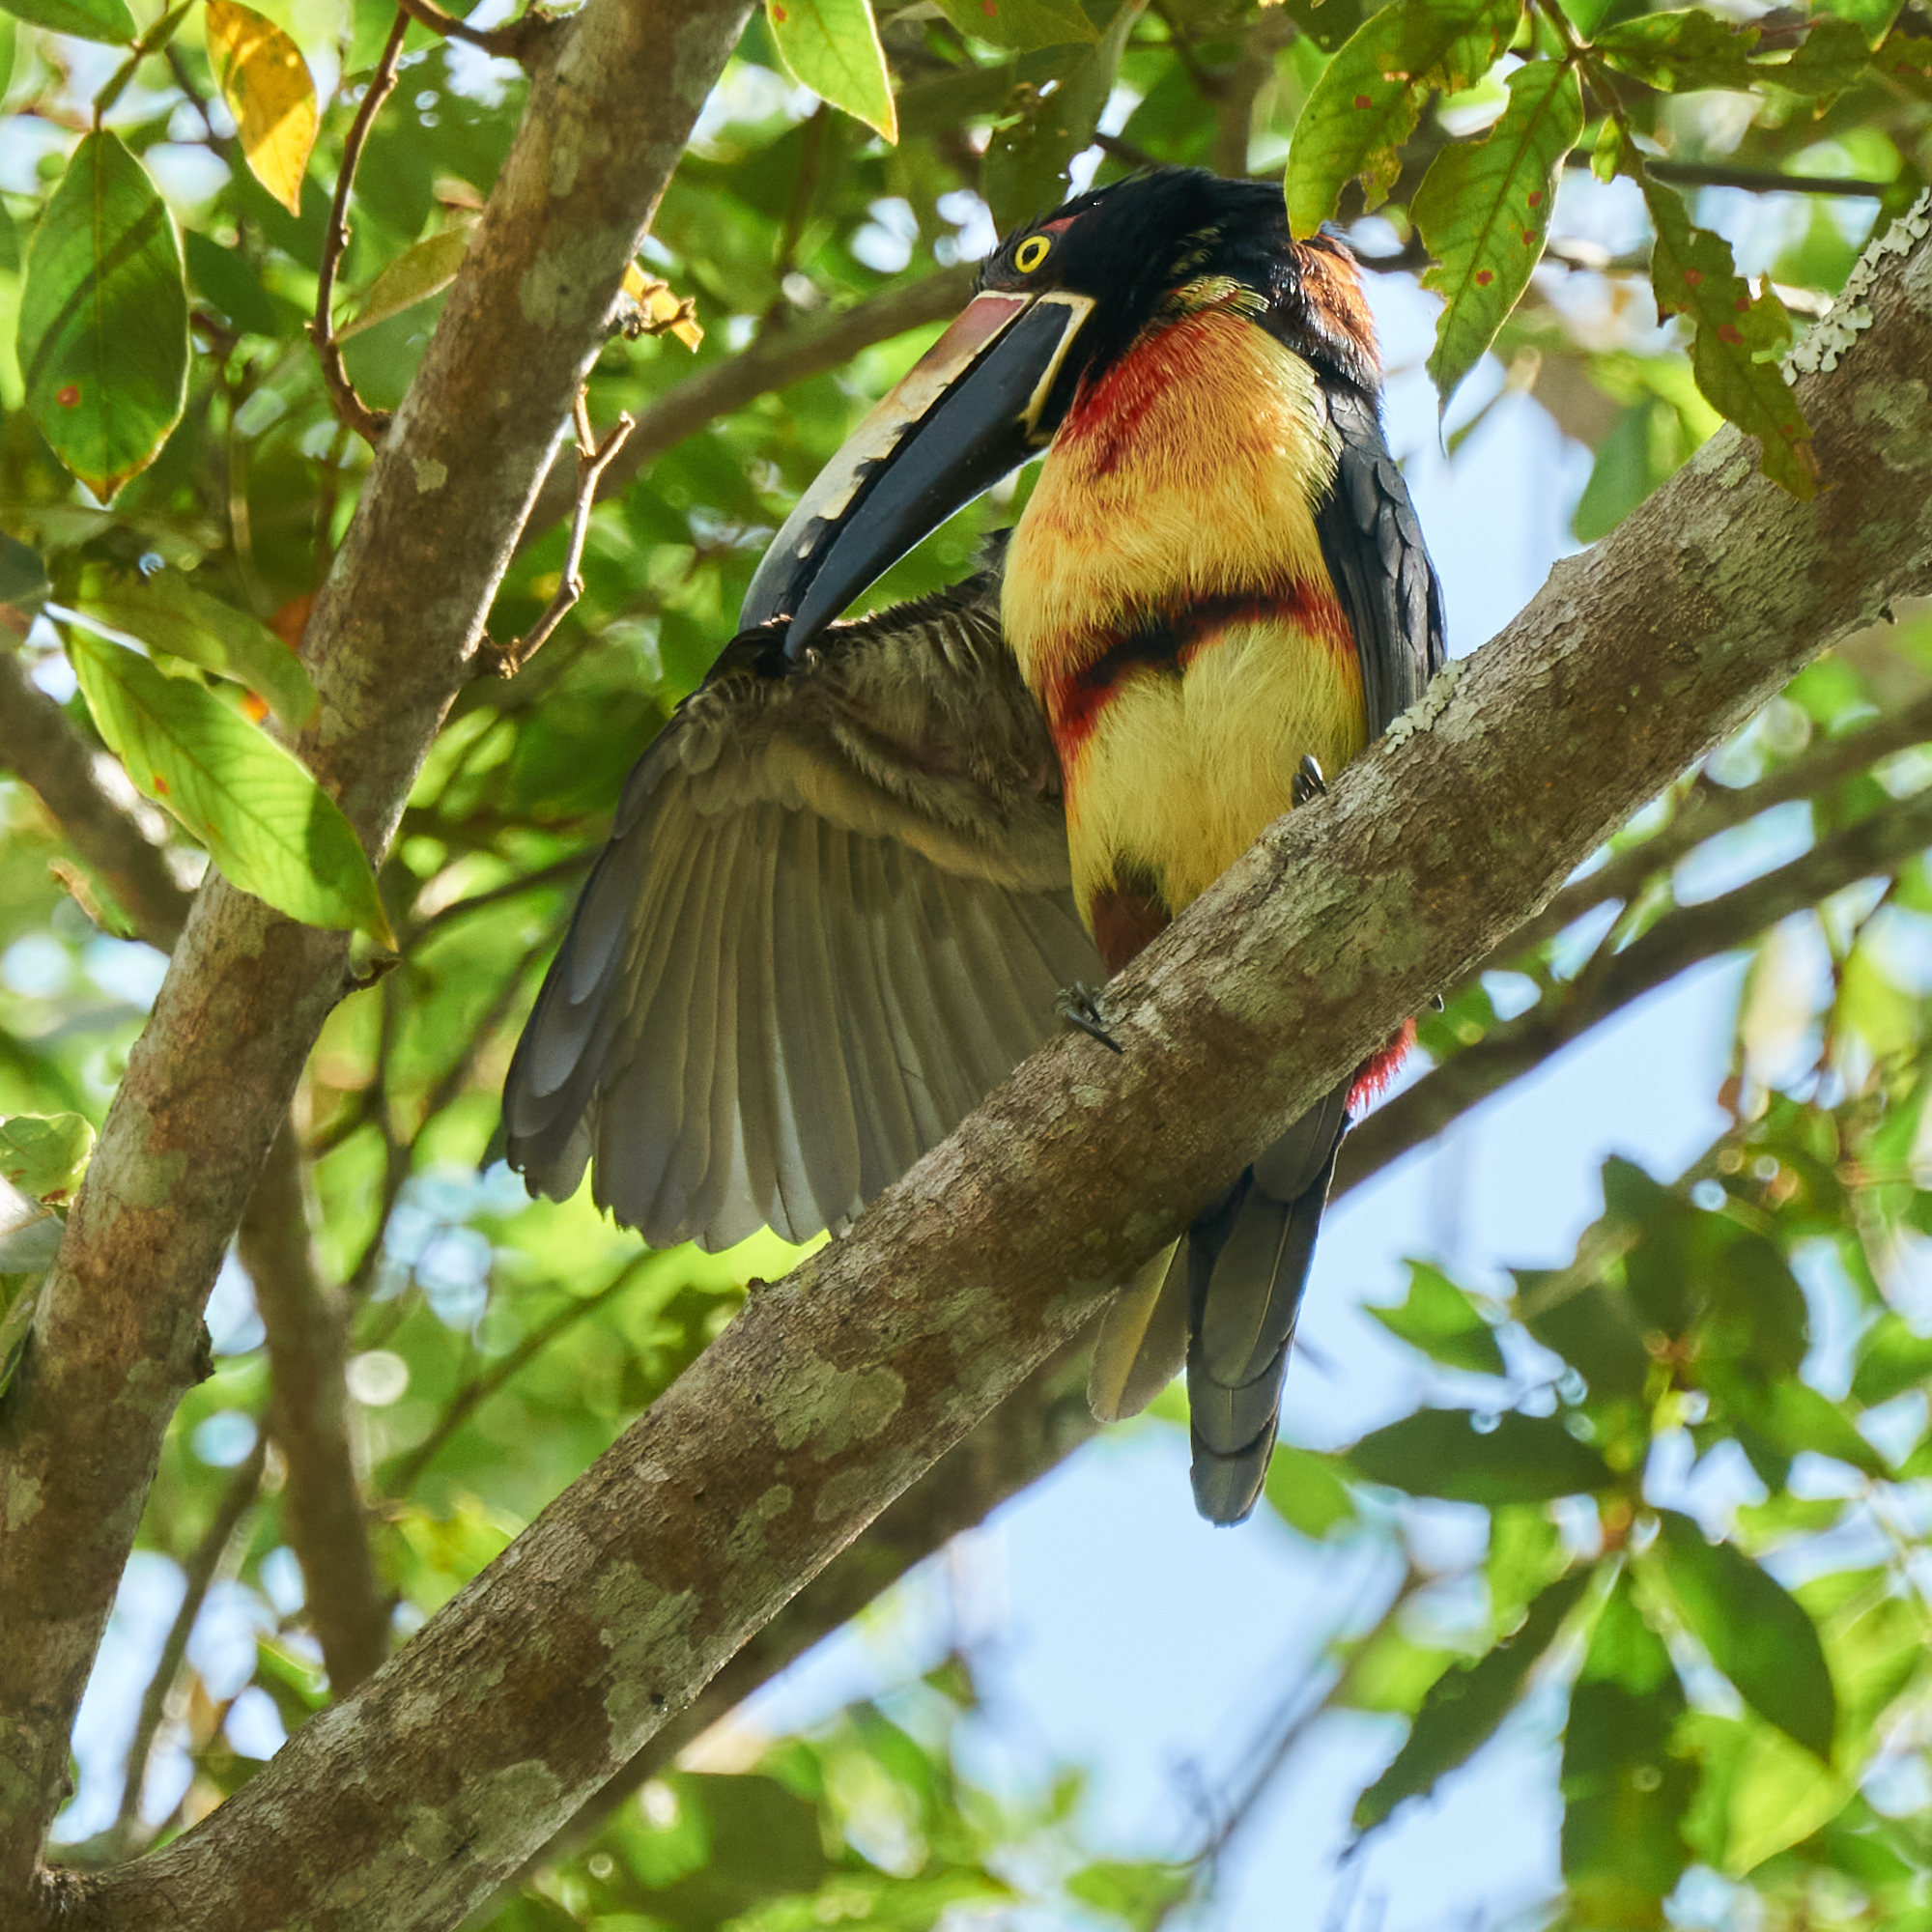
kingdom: Animalia
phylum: Chordata
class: Aves
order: Piciformes
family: Ramphastidae
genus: Pteroglossus
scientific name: Pteroglossus torquatus
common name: Collared aracari
